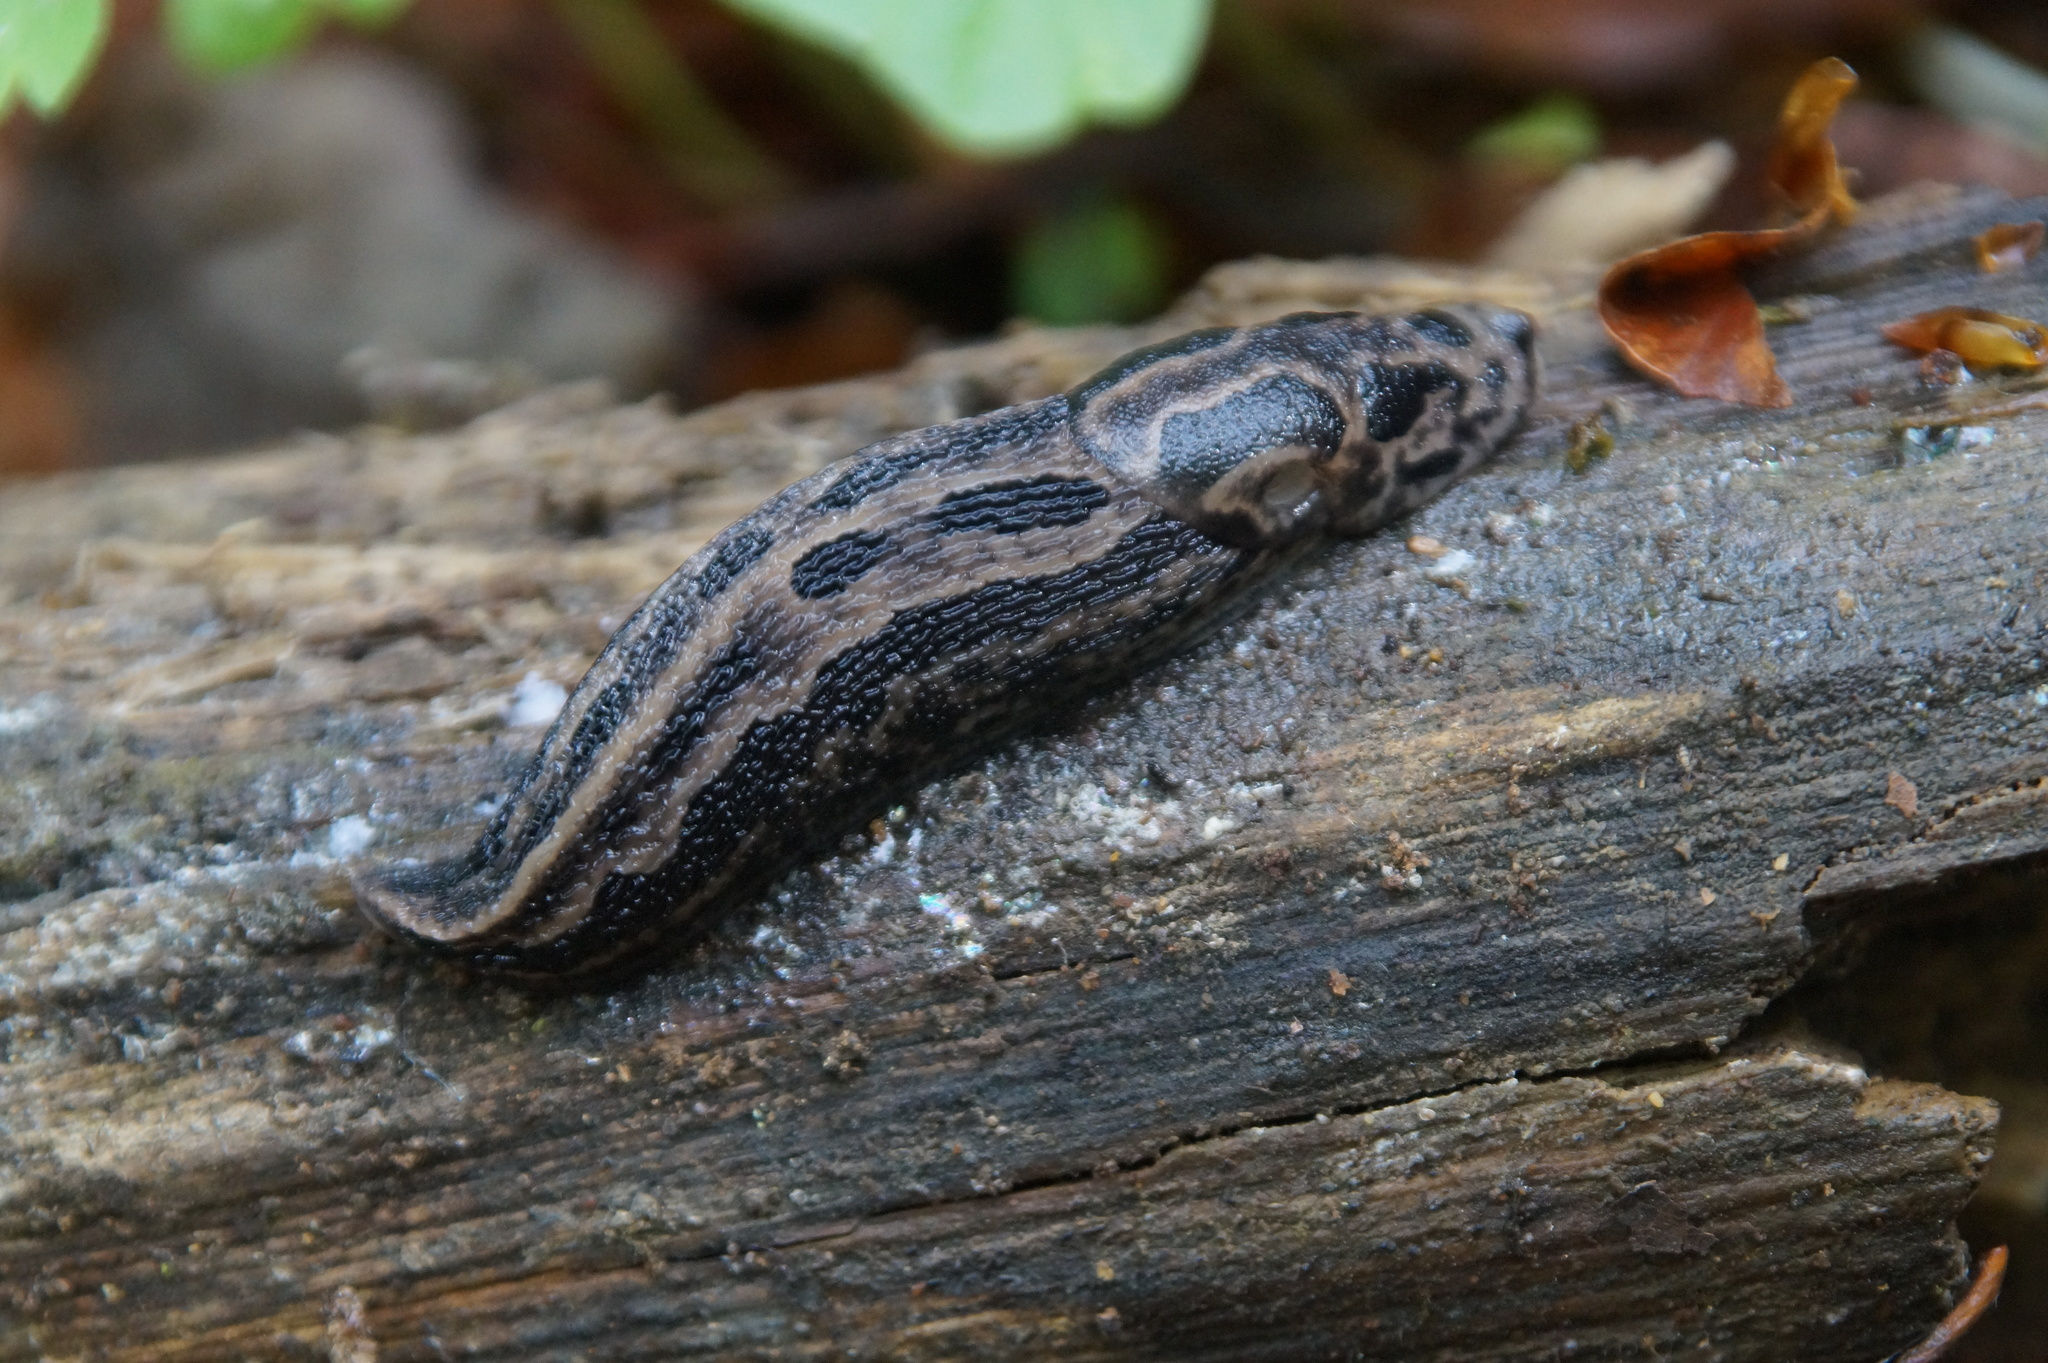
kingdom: Animalia
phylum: Mollusca
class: Gastropoda
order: Stylommatophora
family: Limacidae
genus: Limax
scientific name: Limax maximus
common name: Great grey slug
